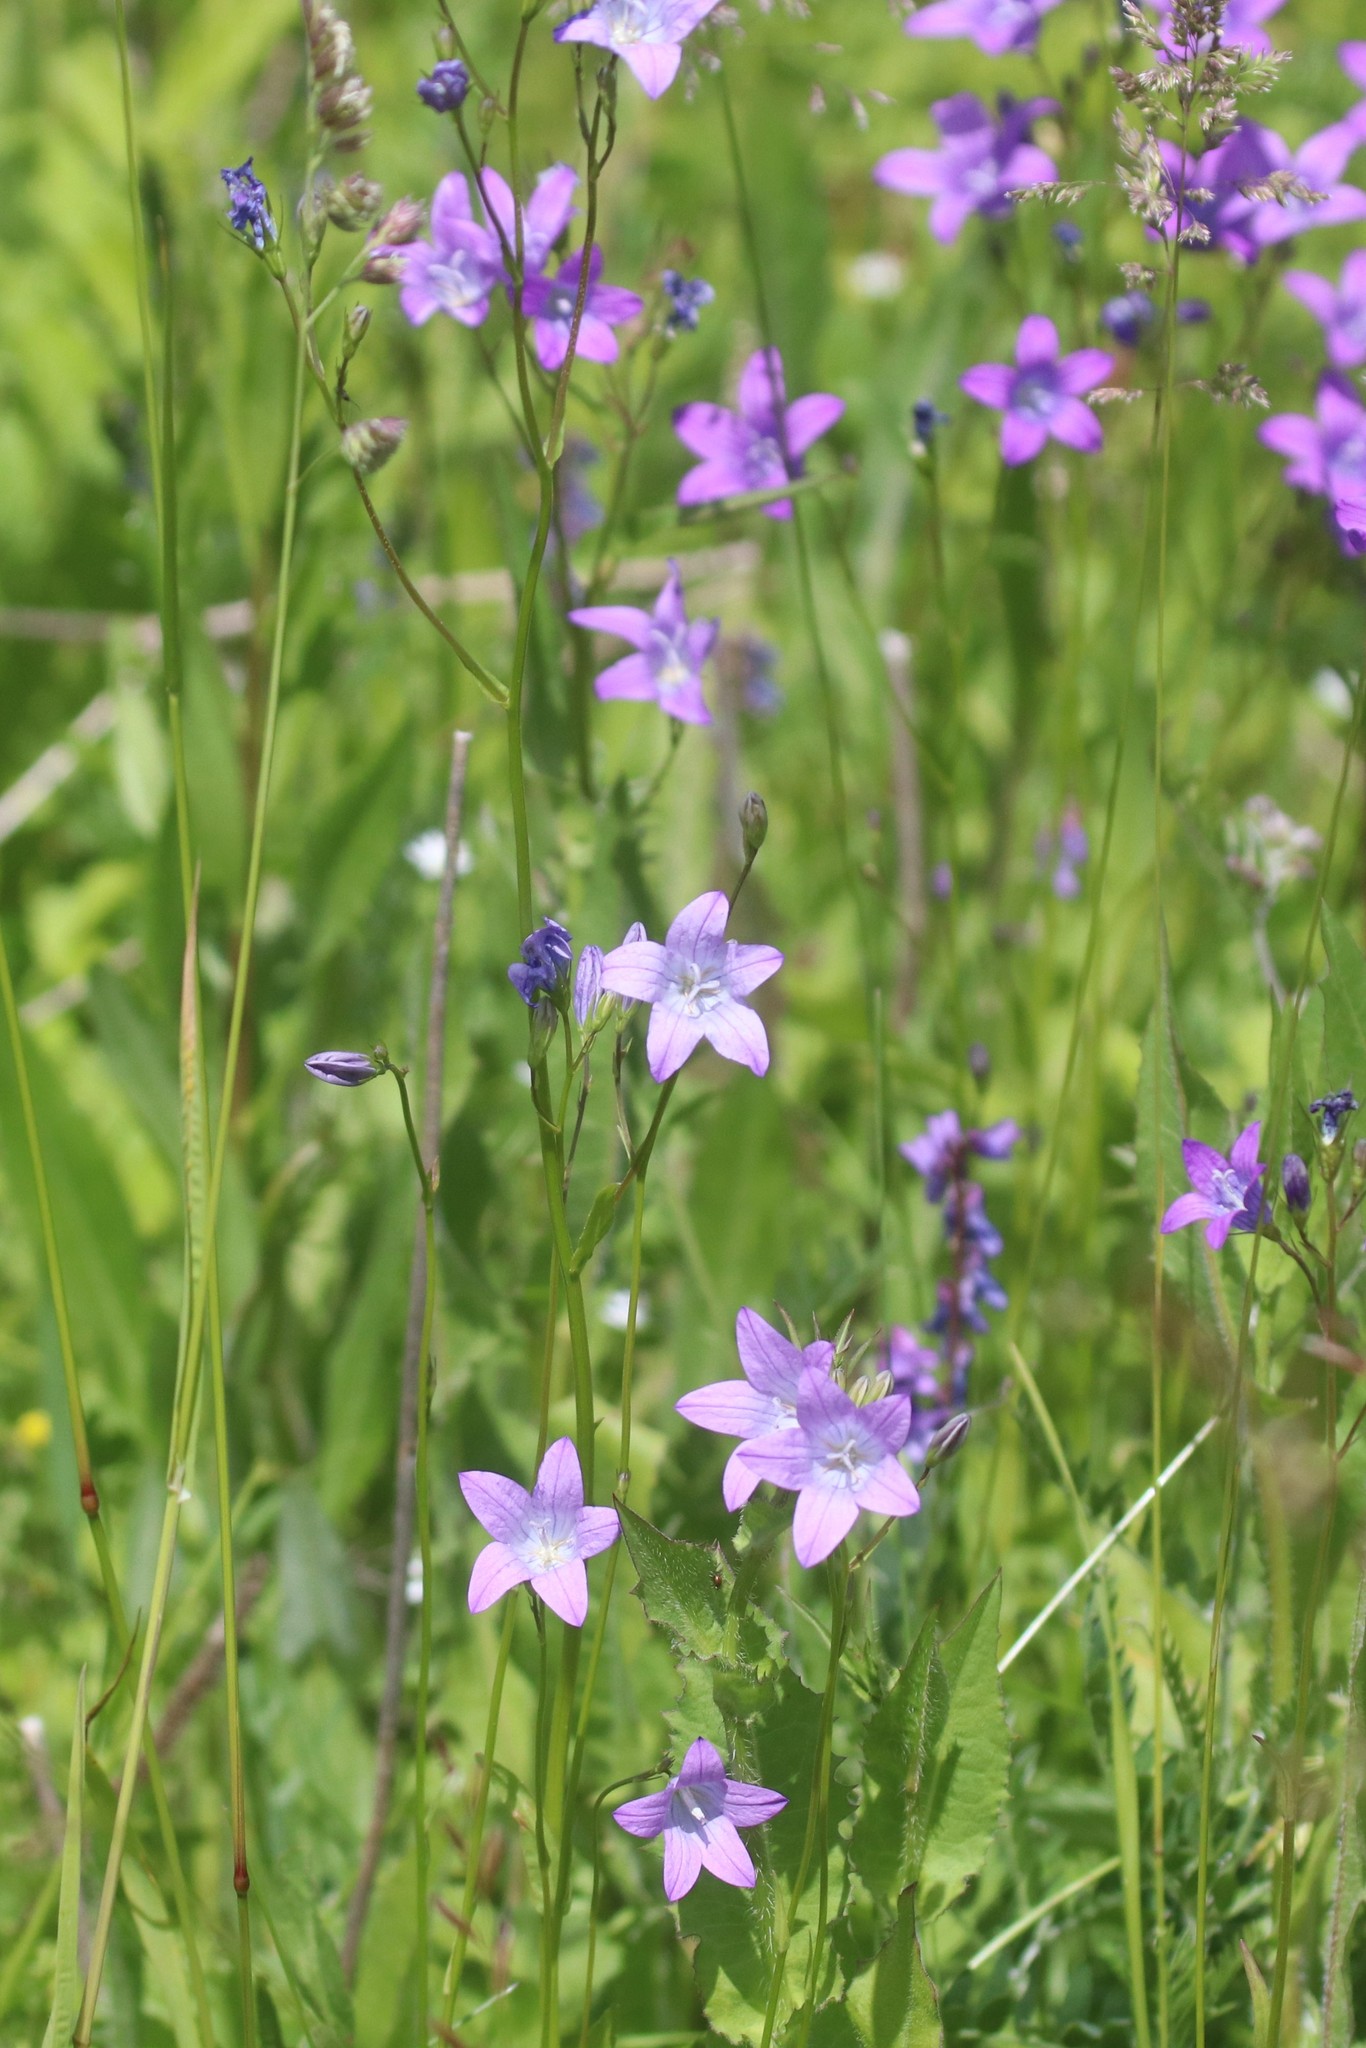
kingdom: Plantae
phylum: Tracheophyta
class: Magnoliopsida
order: Asterales
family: Campanulaceae
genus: Campanula
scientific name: Campanula patula
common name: Spreading bellflower
